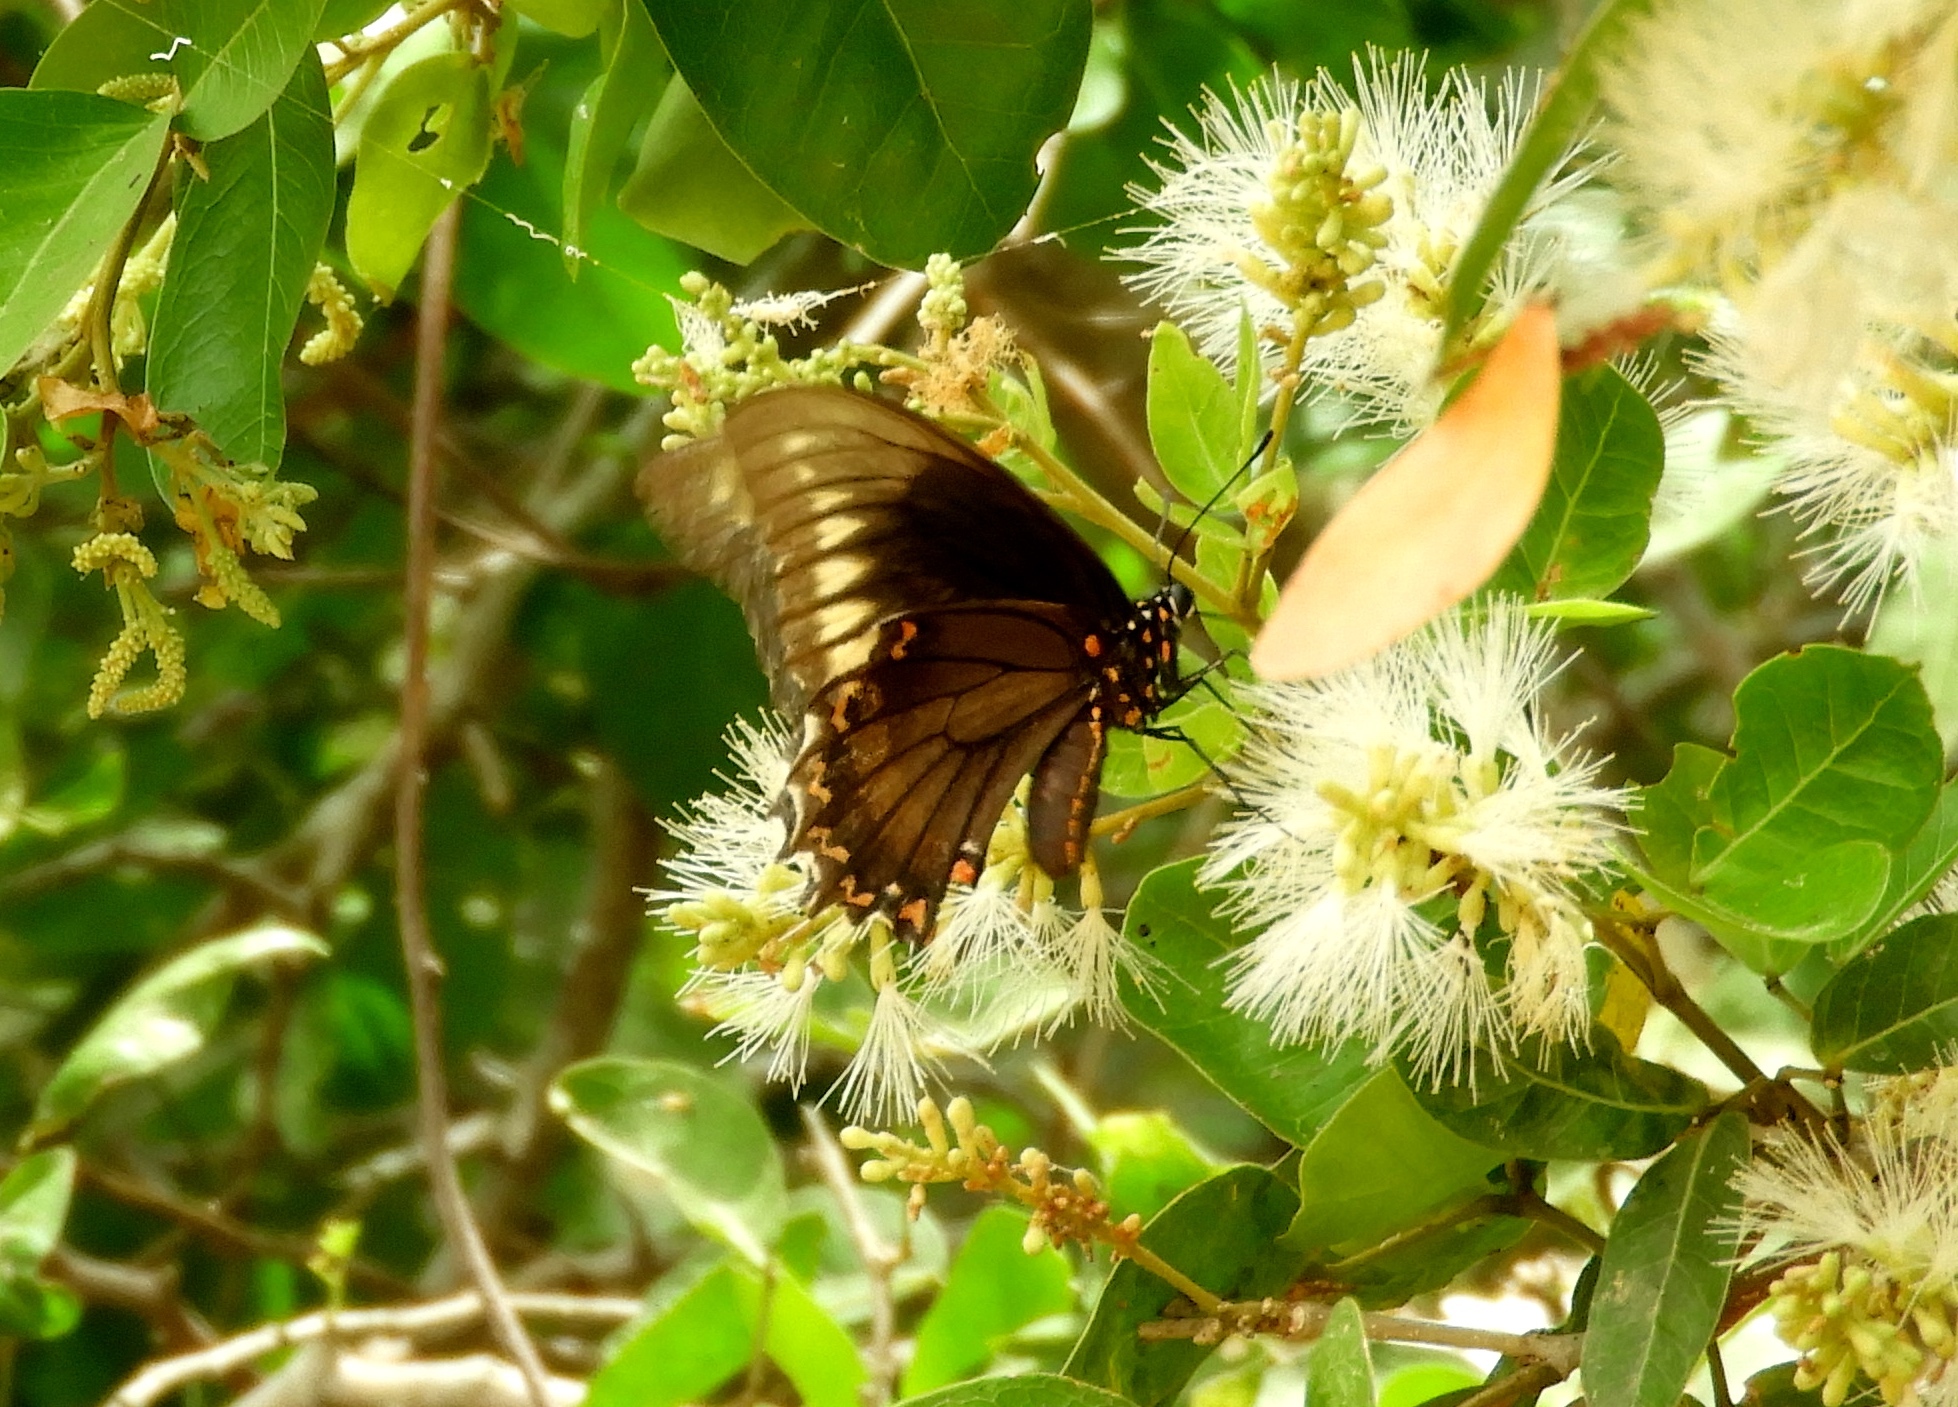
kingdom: Animalia
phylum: Arthropoda
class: Insecta
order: Lepidoptera
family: Papilionidae
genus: Battus
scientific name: Battus polydamas
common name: Polydamas swallowtail
